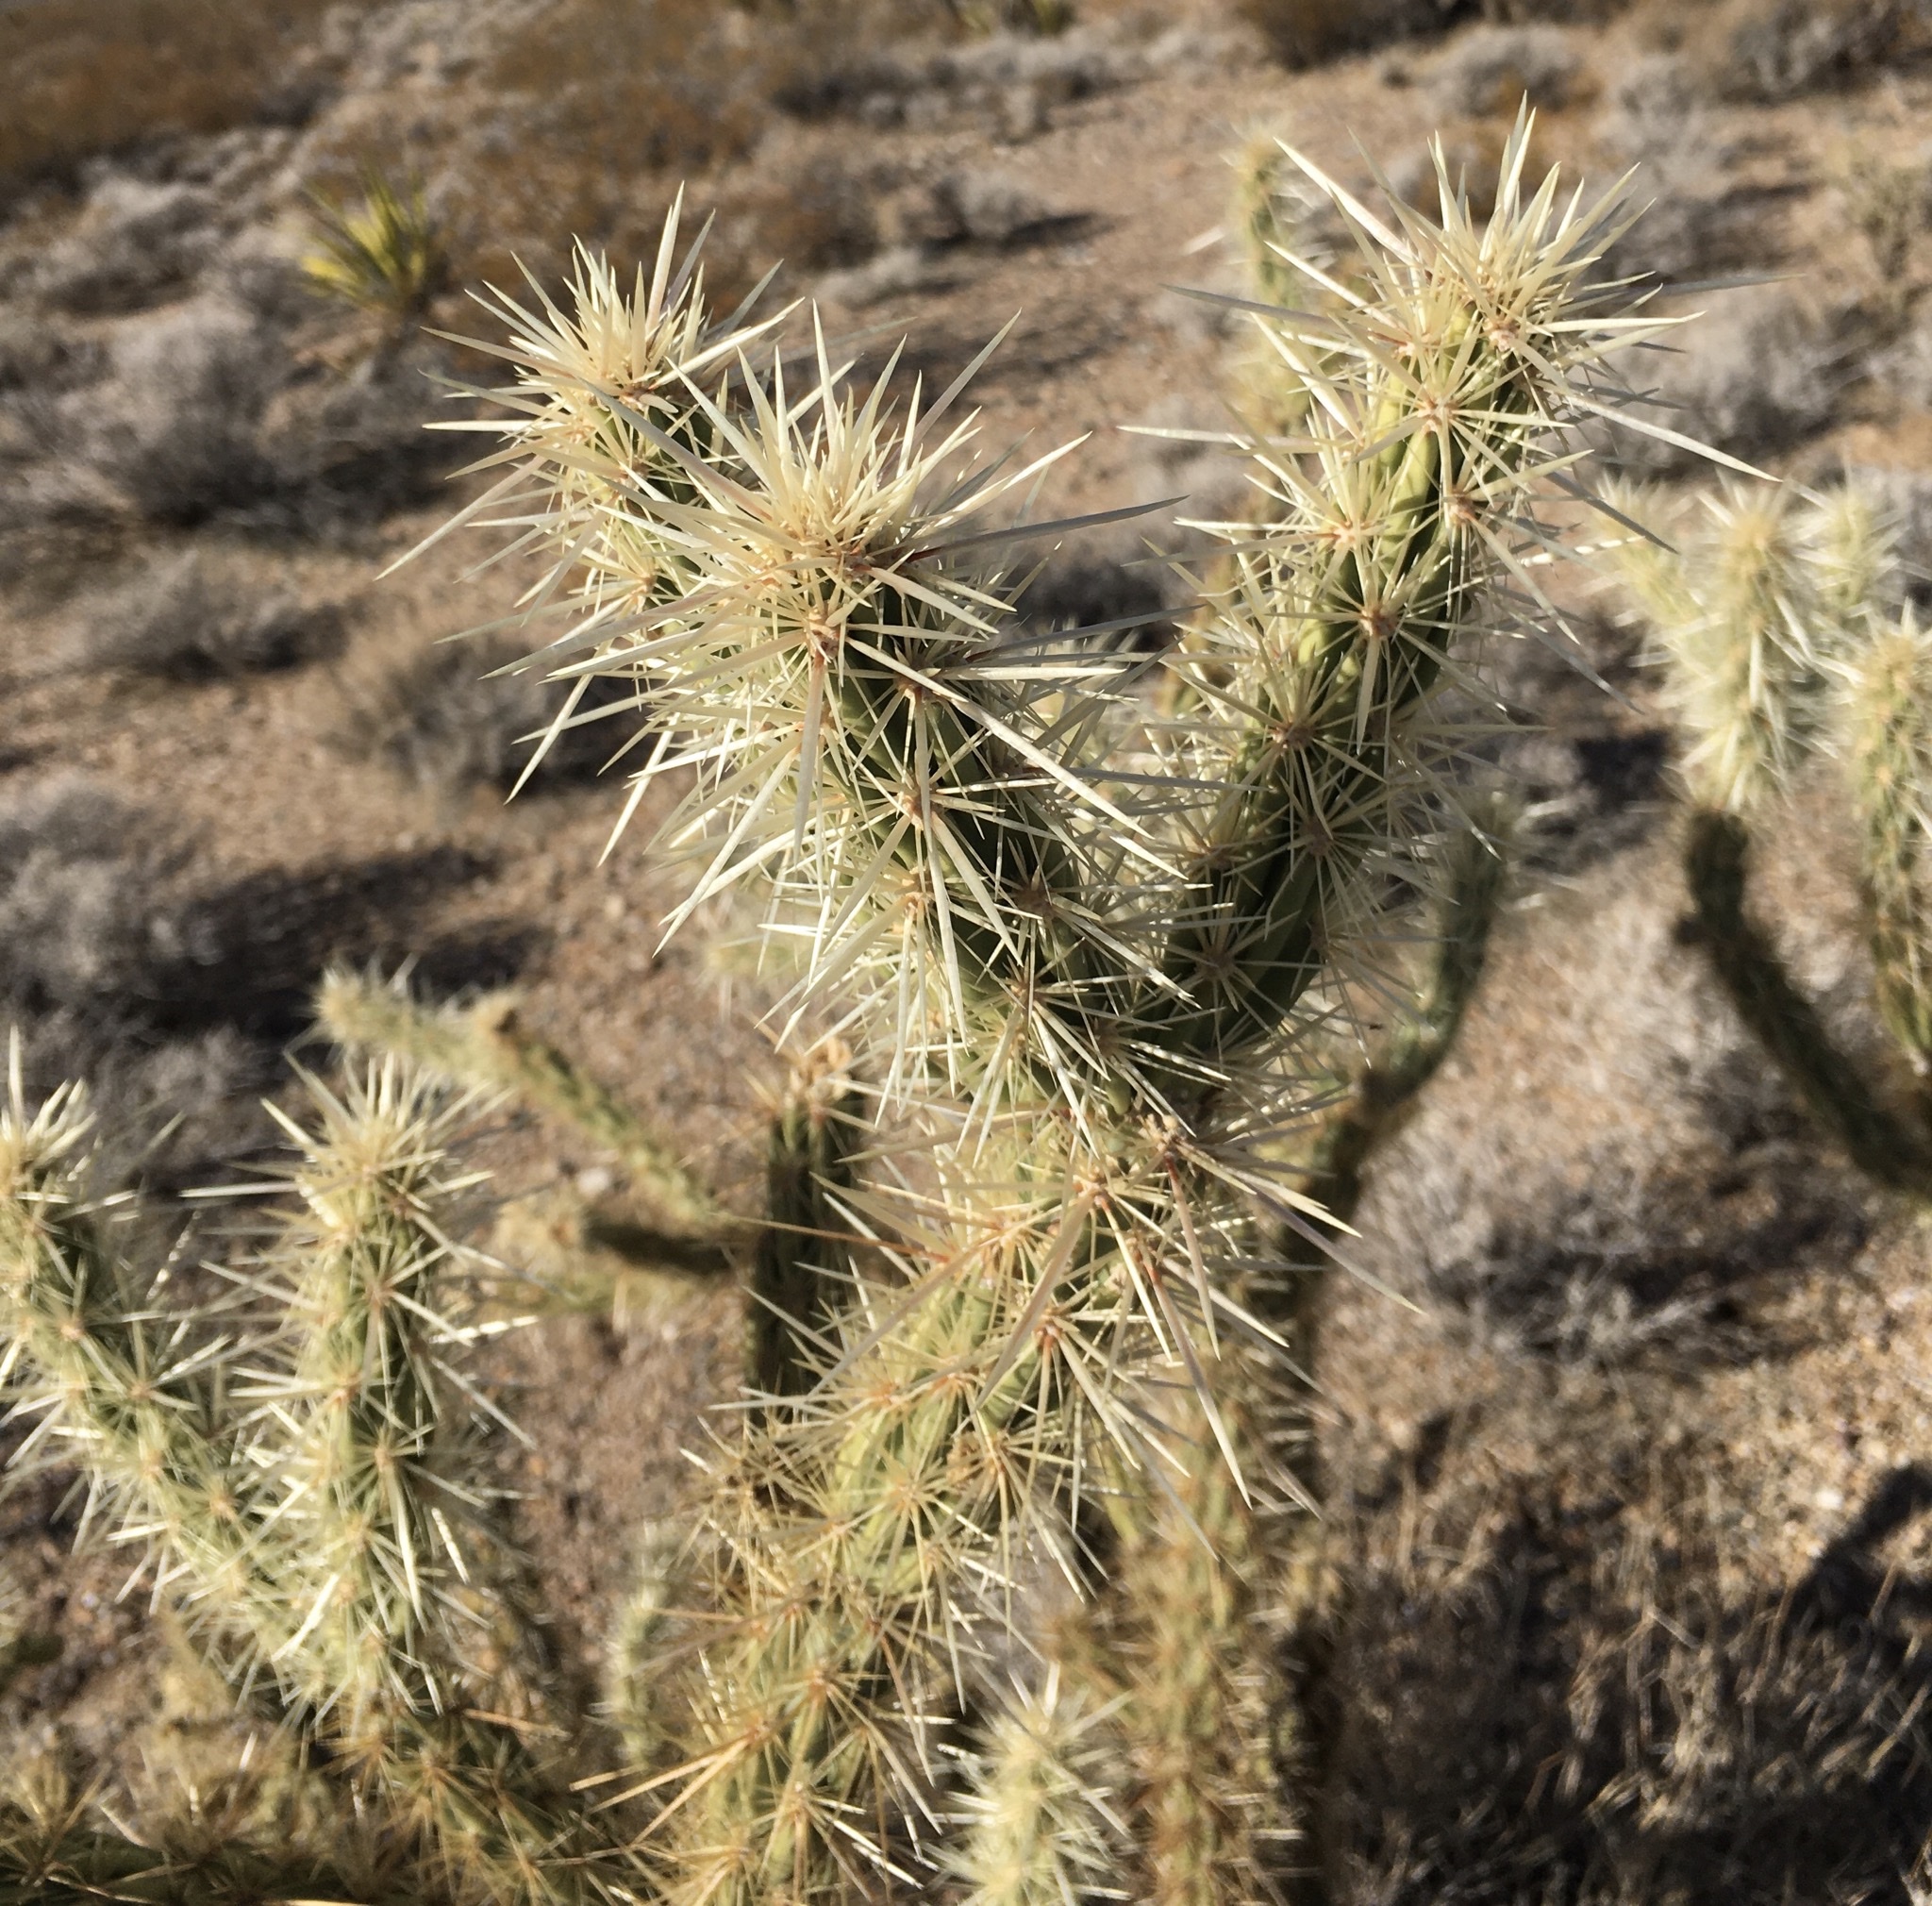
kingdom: Plantae
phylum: Tracheophyta
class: Magnoliopsida
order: Caryophyllales
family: Cactaceae
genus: Cylindropuntia
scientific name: Cylindropuntia acanthocarpa
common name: Buckhorn cholla
